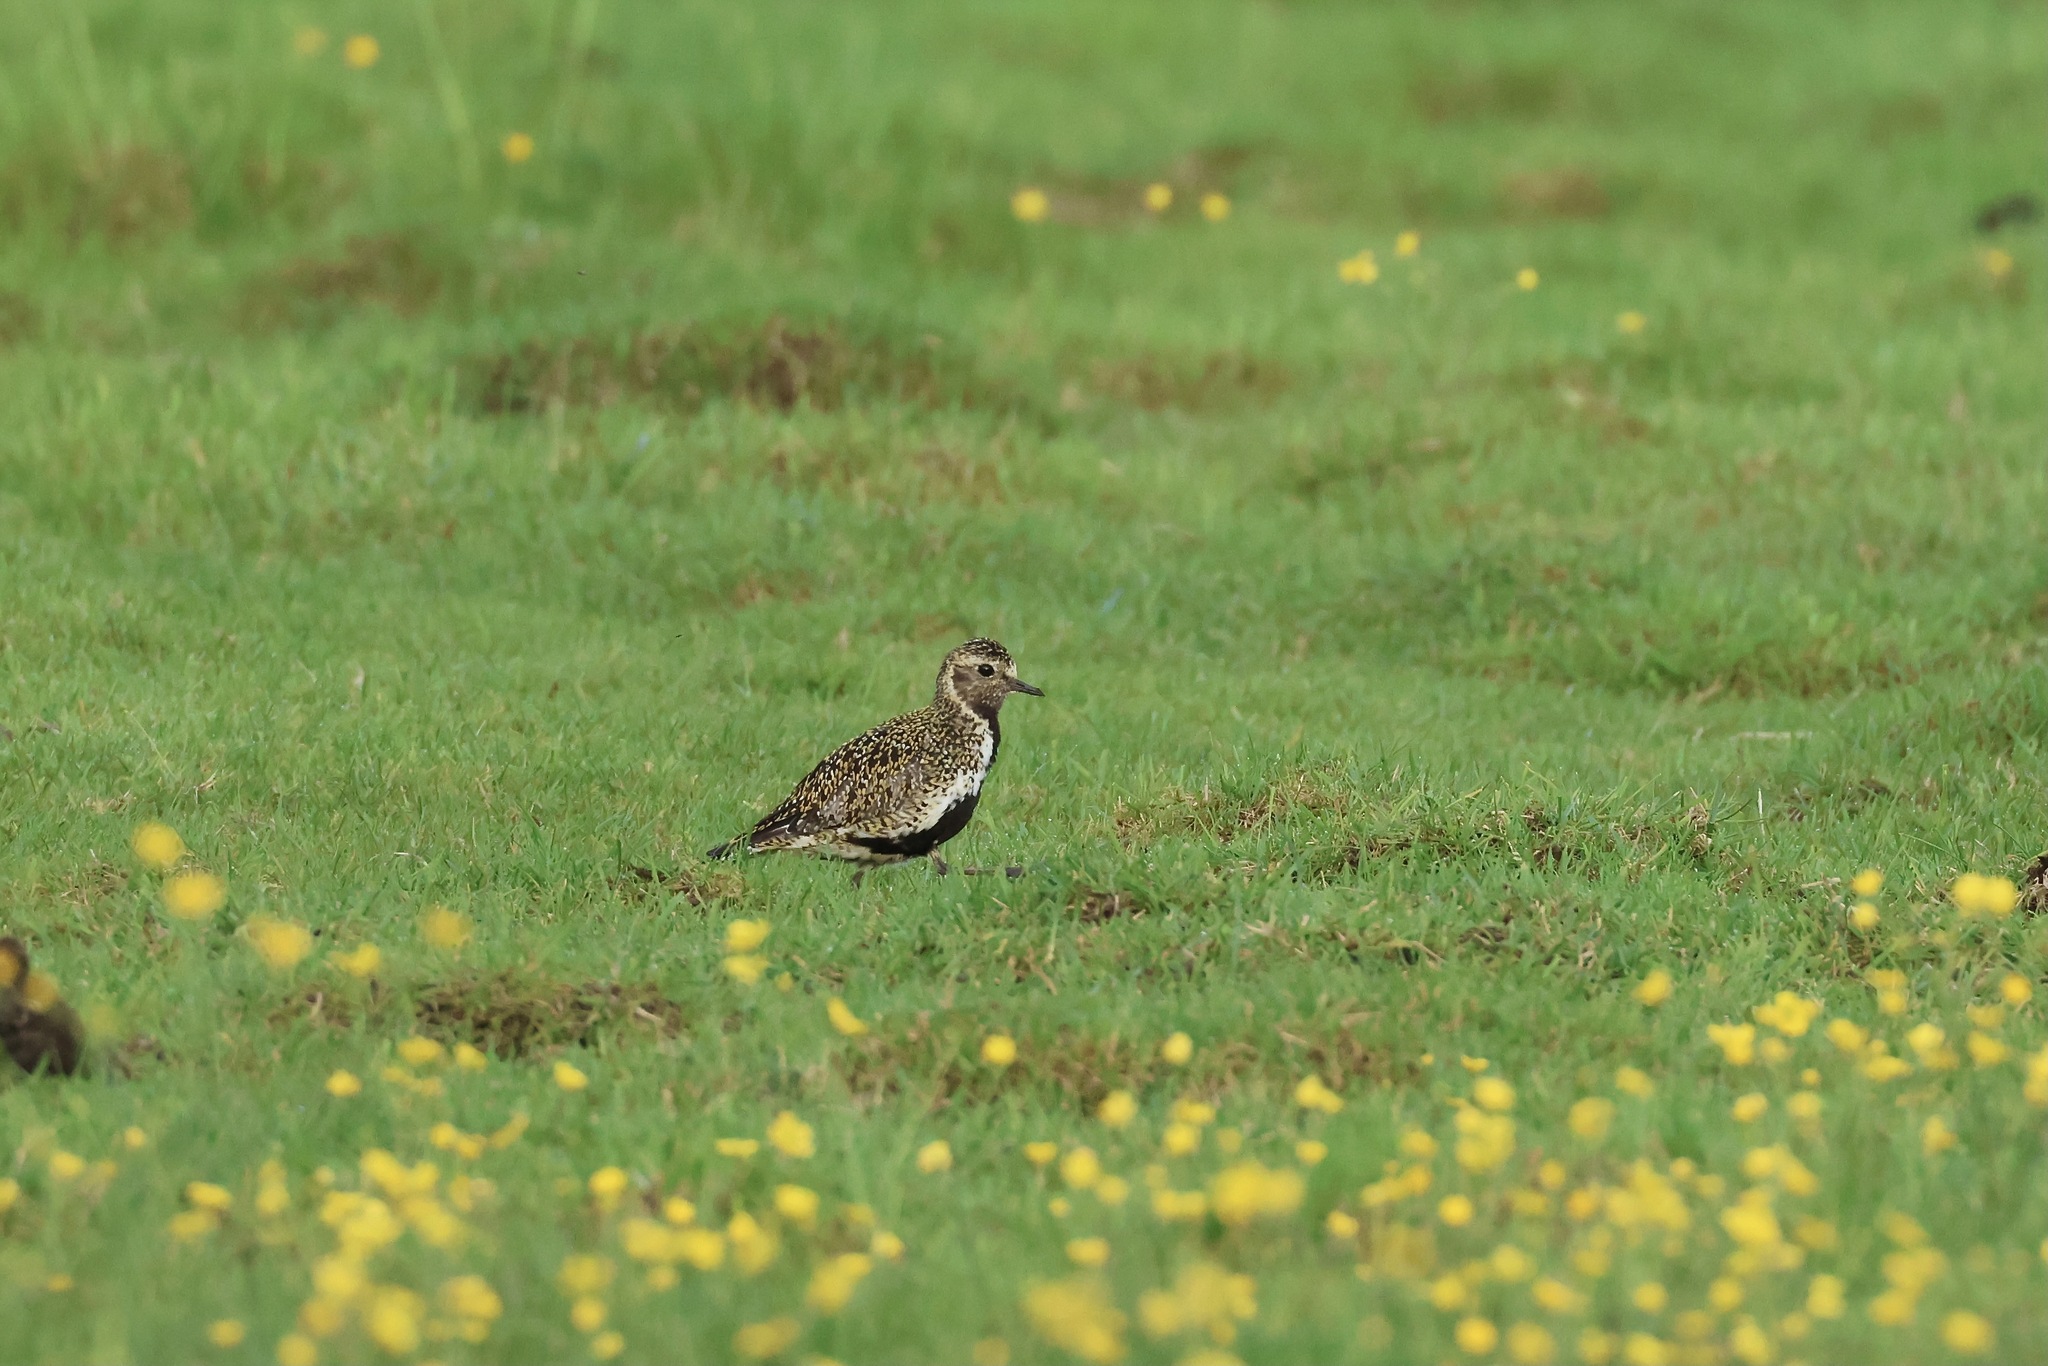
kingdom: Animalia
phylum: Chordata
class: Aves
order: Charadriiformes
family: Charadriidae
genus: Pluvialis
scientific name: Pluvialis apricaria
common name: European golden plover
